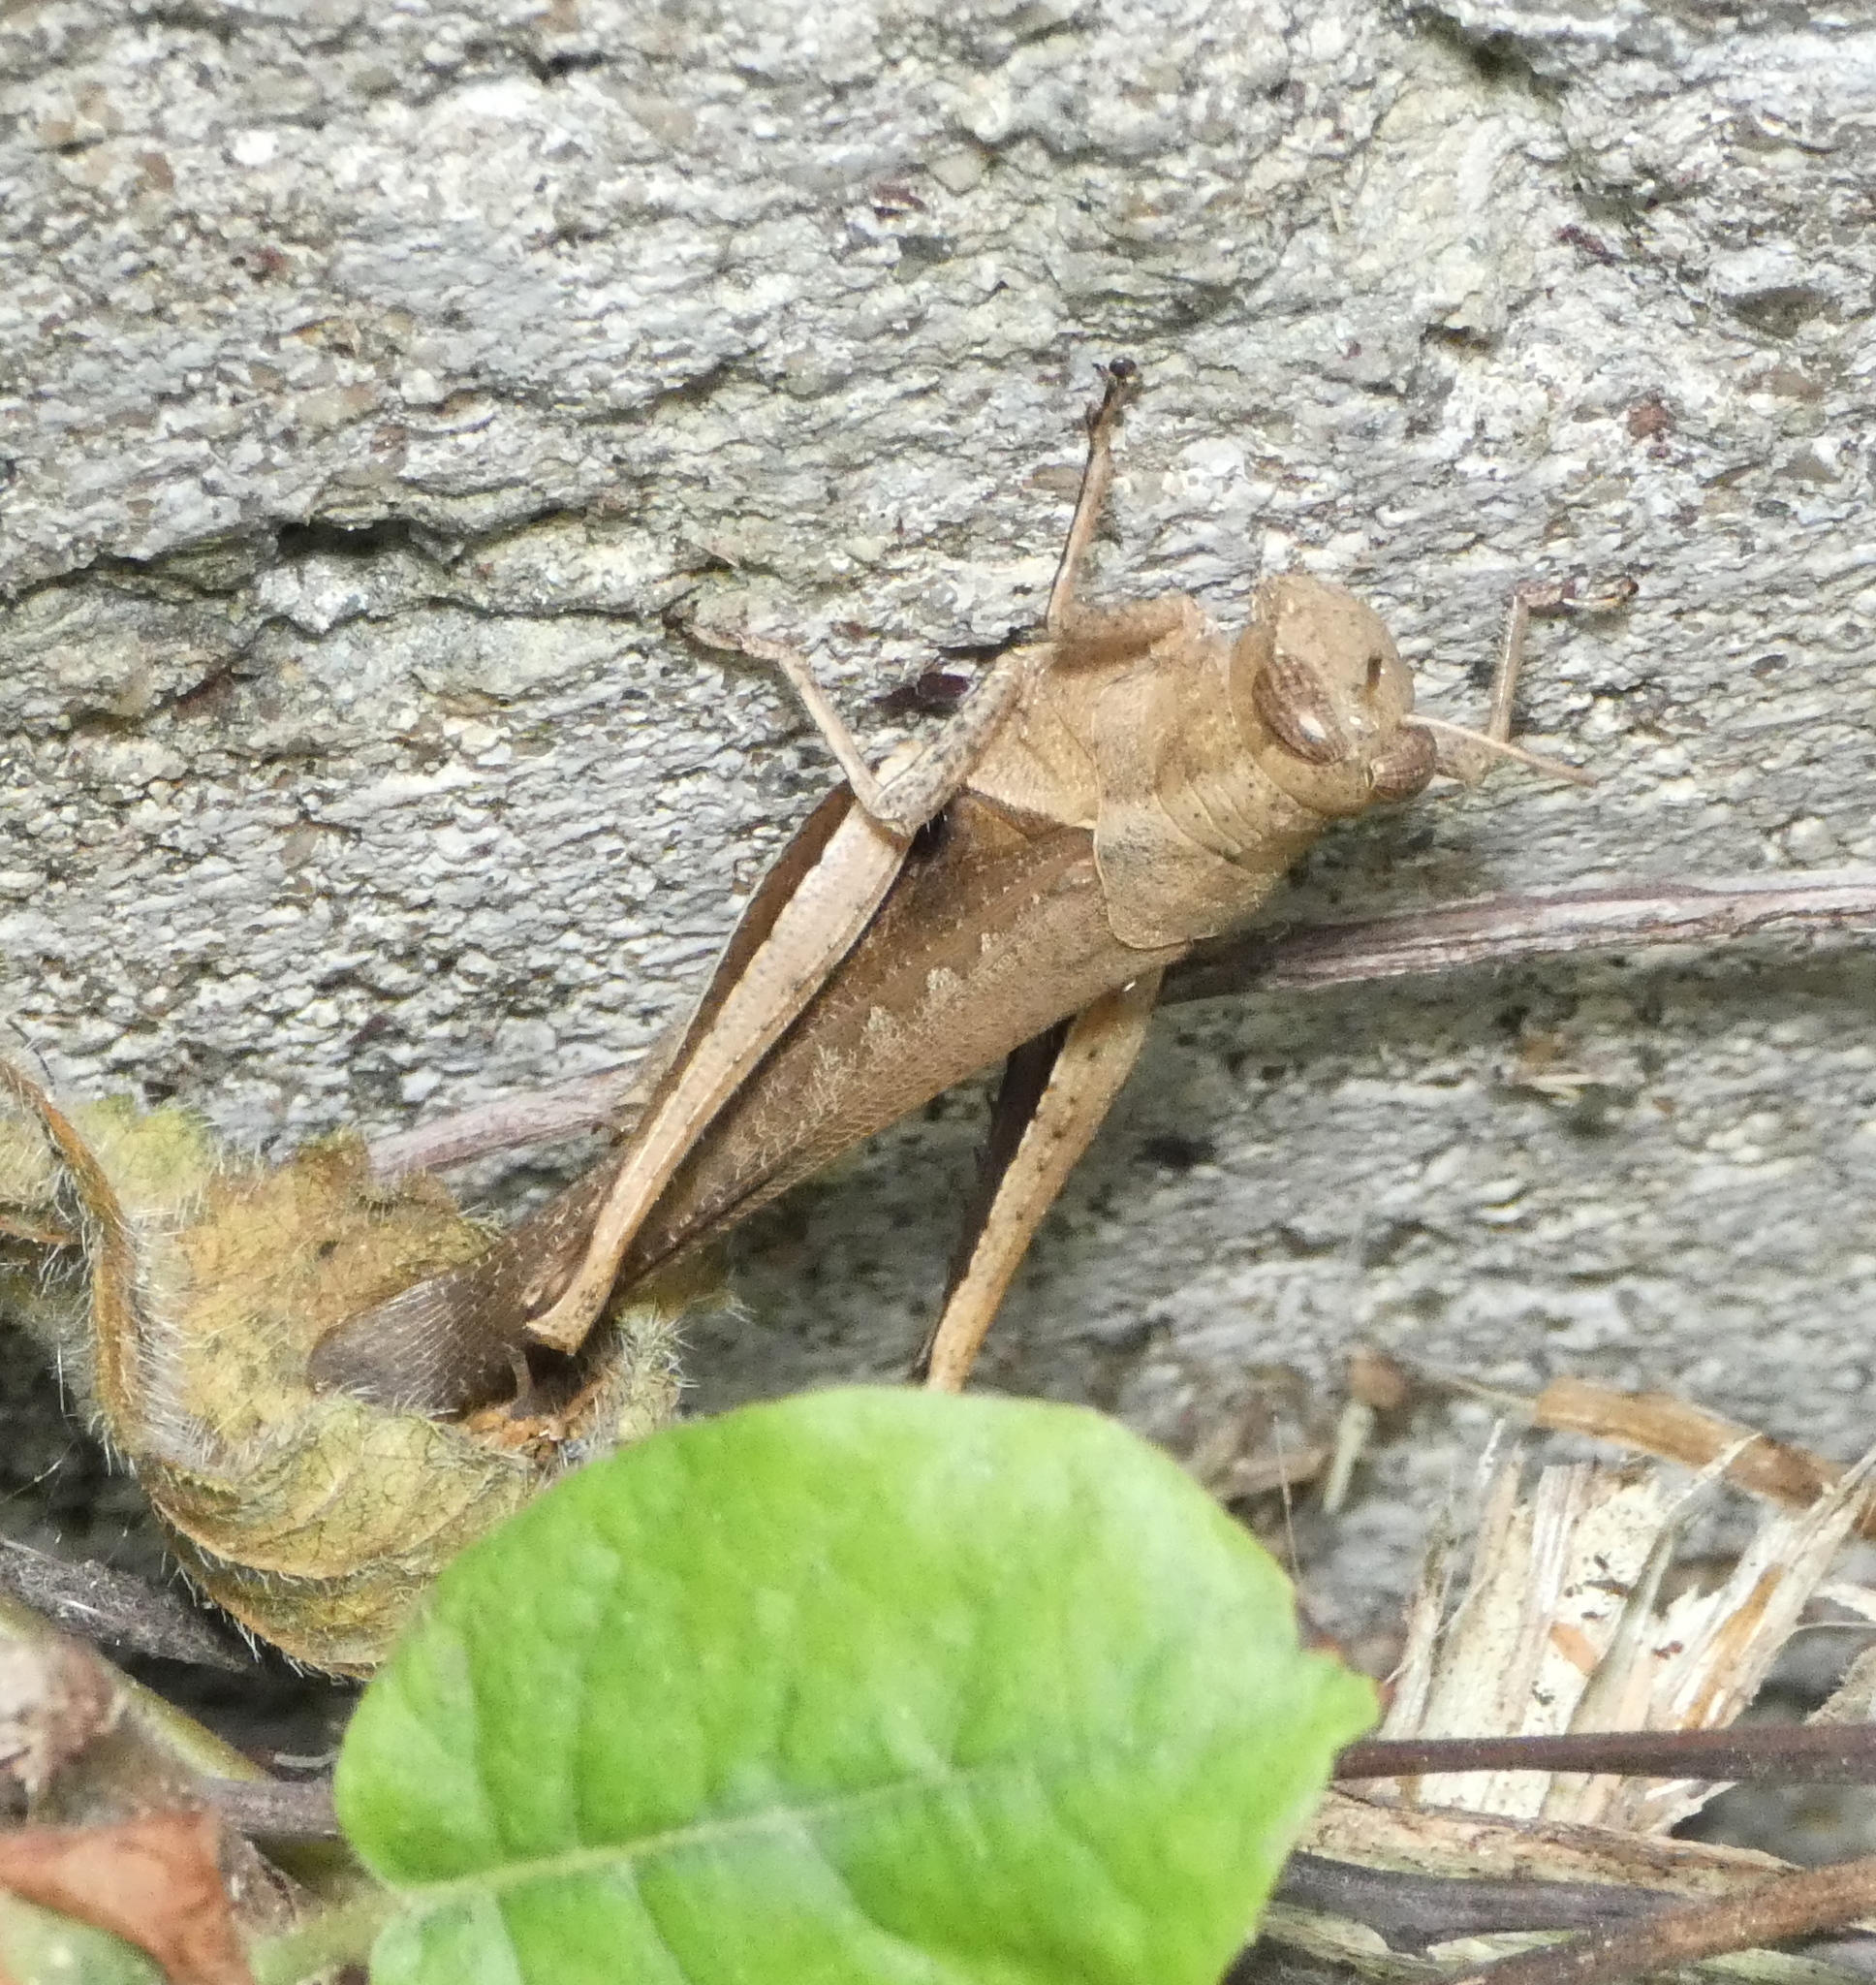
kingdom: Animalia
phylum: Arthropoda
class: Insecta
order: Orthoptera
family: Acrididae
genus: Abracris
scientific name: Abracris flavolineata
